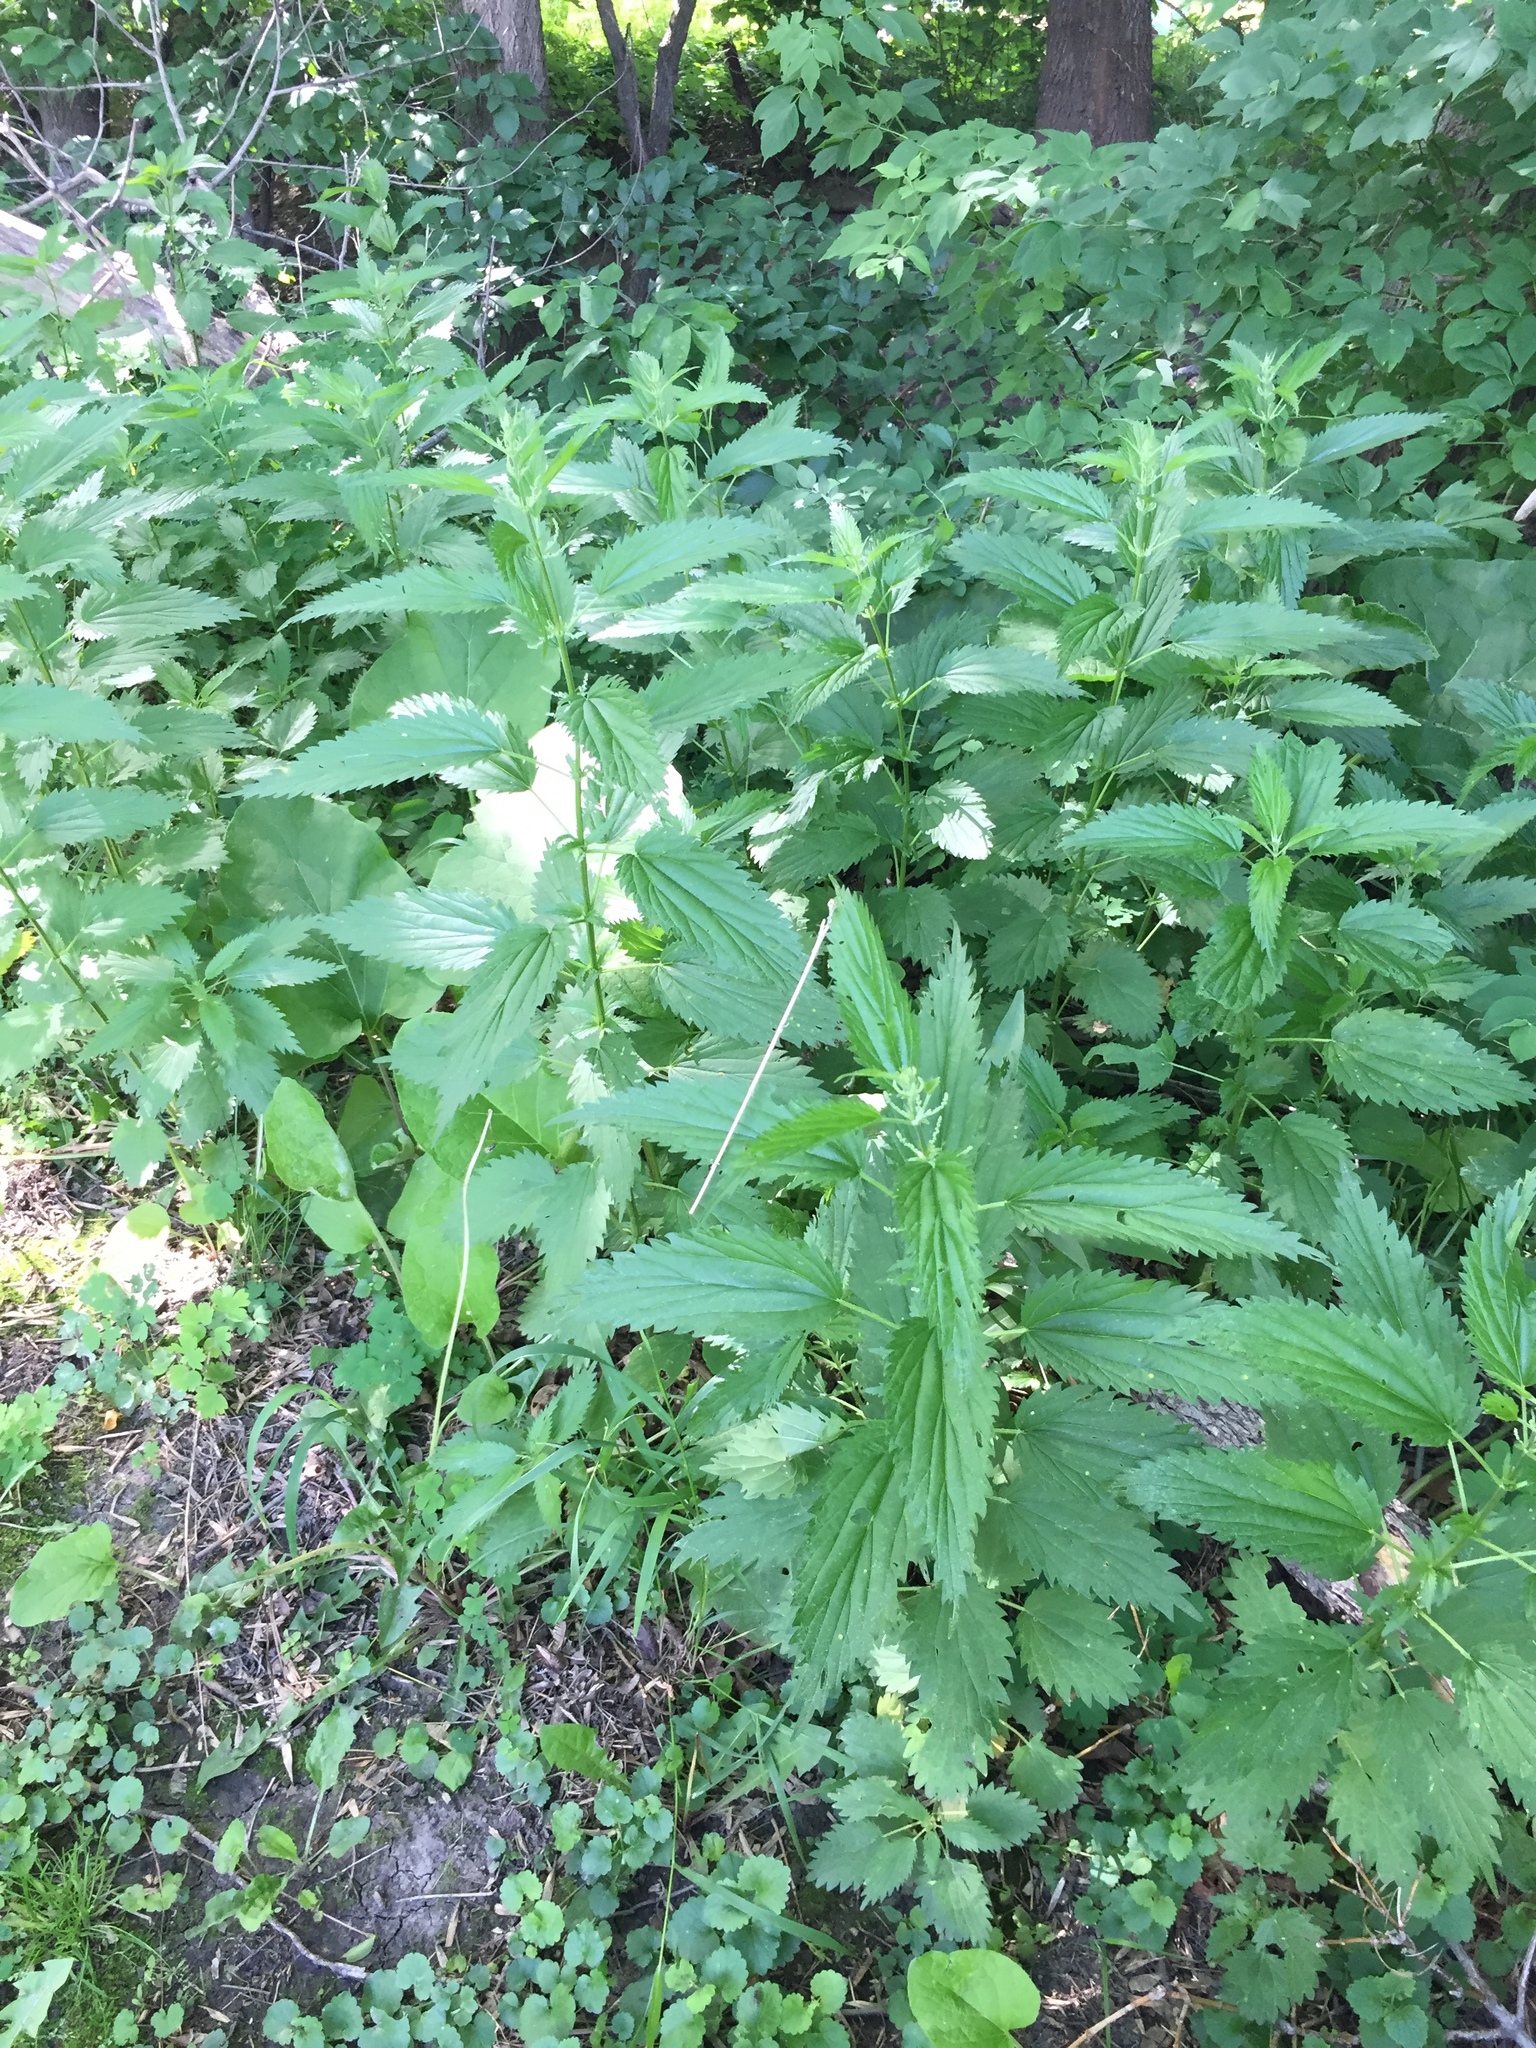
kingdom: Plantae
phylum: Tracheophyta
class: Magnoliopsida
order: Rosales
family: Urticaceae
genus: Urtica
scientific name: Urtica gracilis
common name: Slender stinging nettle
